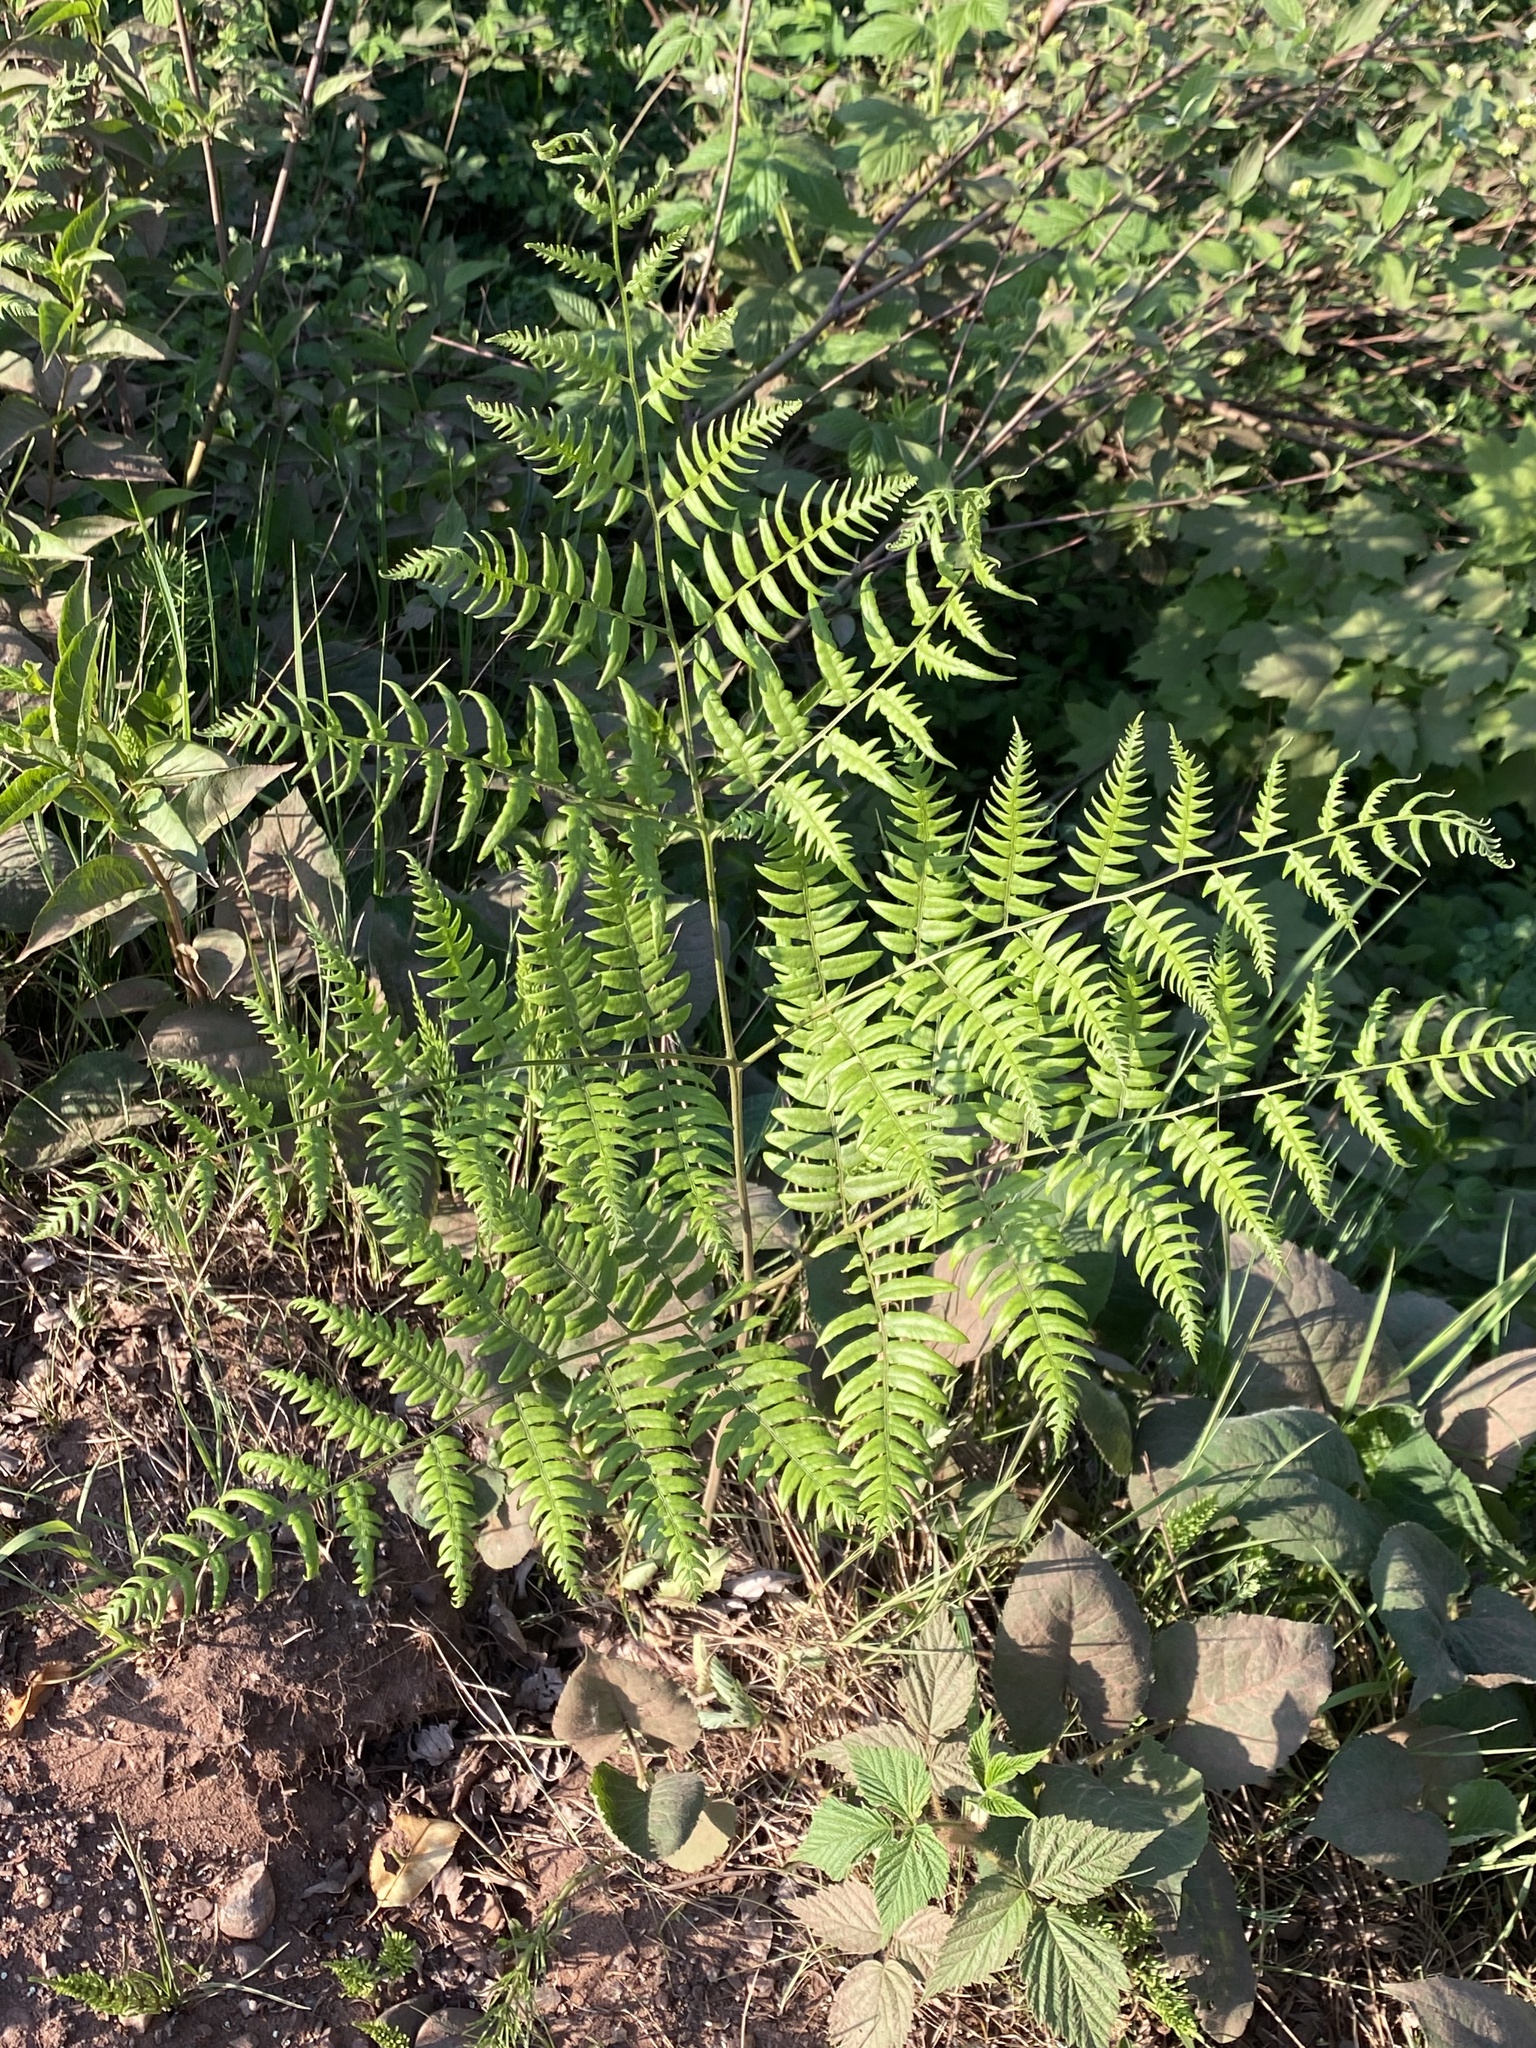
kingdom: Plantae
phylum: Tracheophyta
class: Polypodiopsida
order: Polypodiales
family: Dennstaedtiaceae
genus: Pteridium
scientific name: Pteridium aquilinum
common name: Bracken
